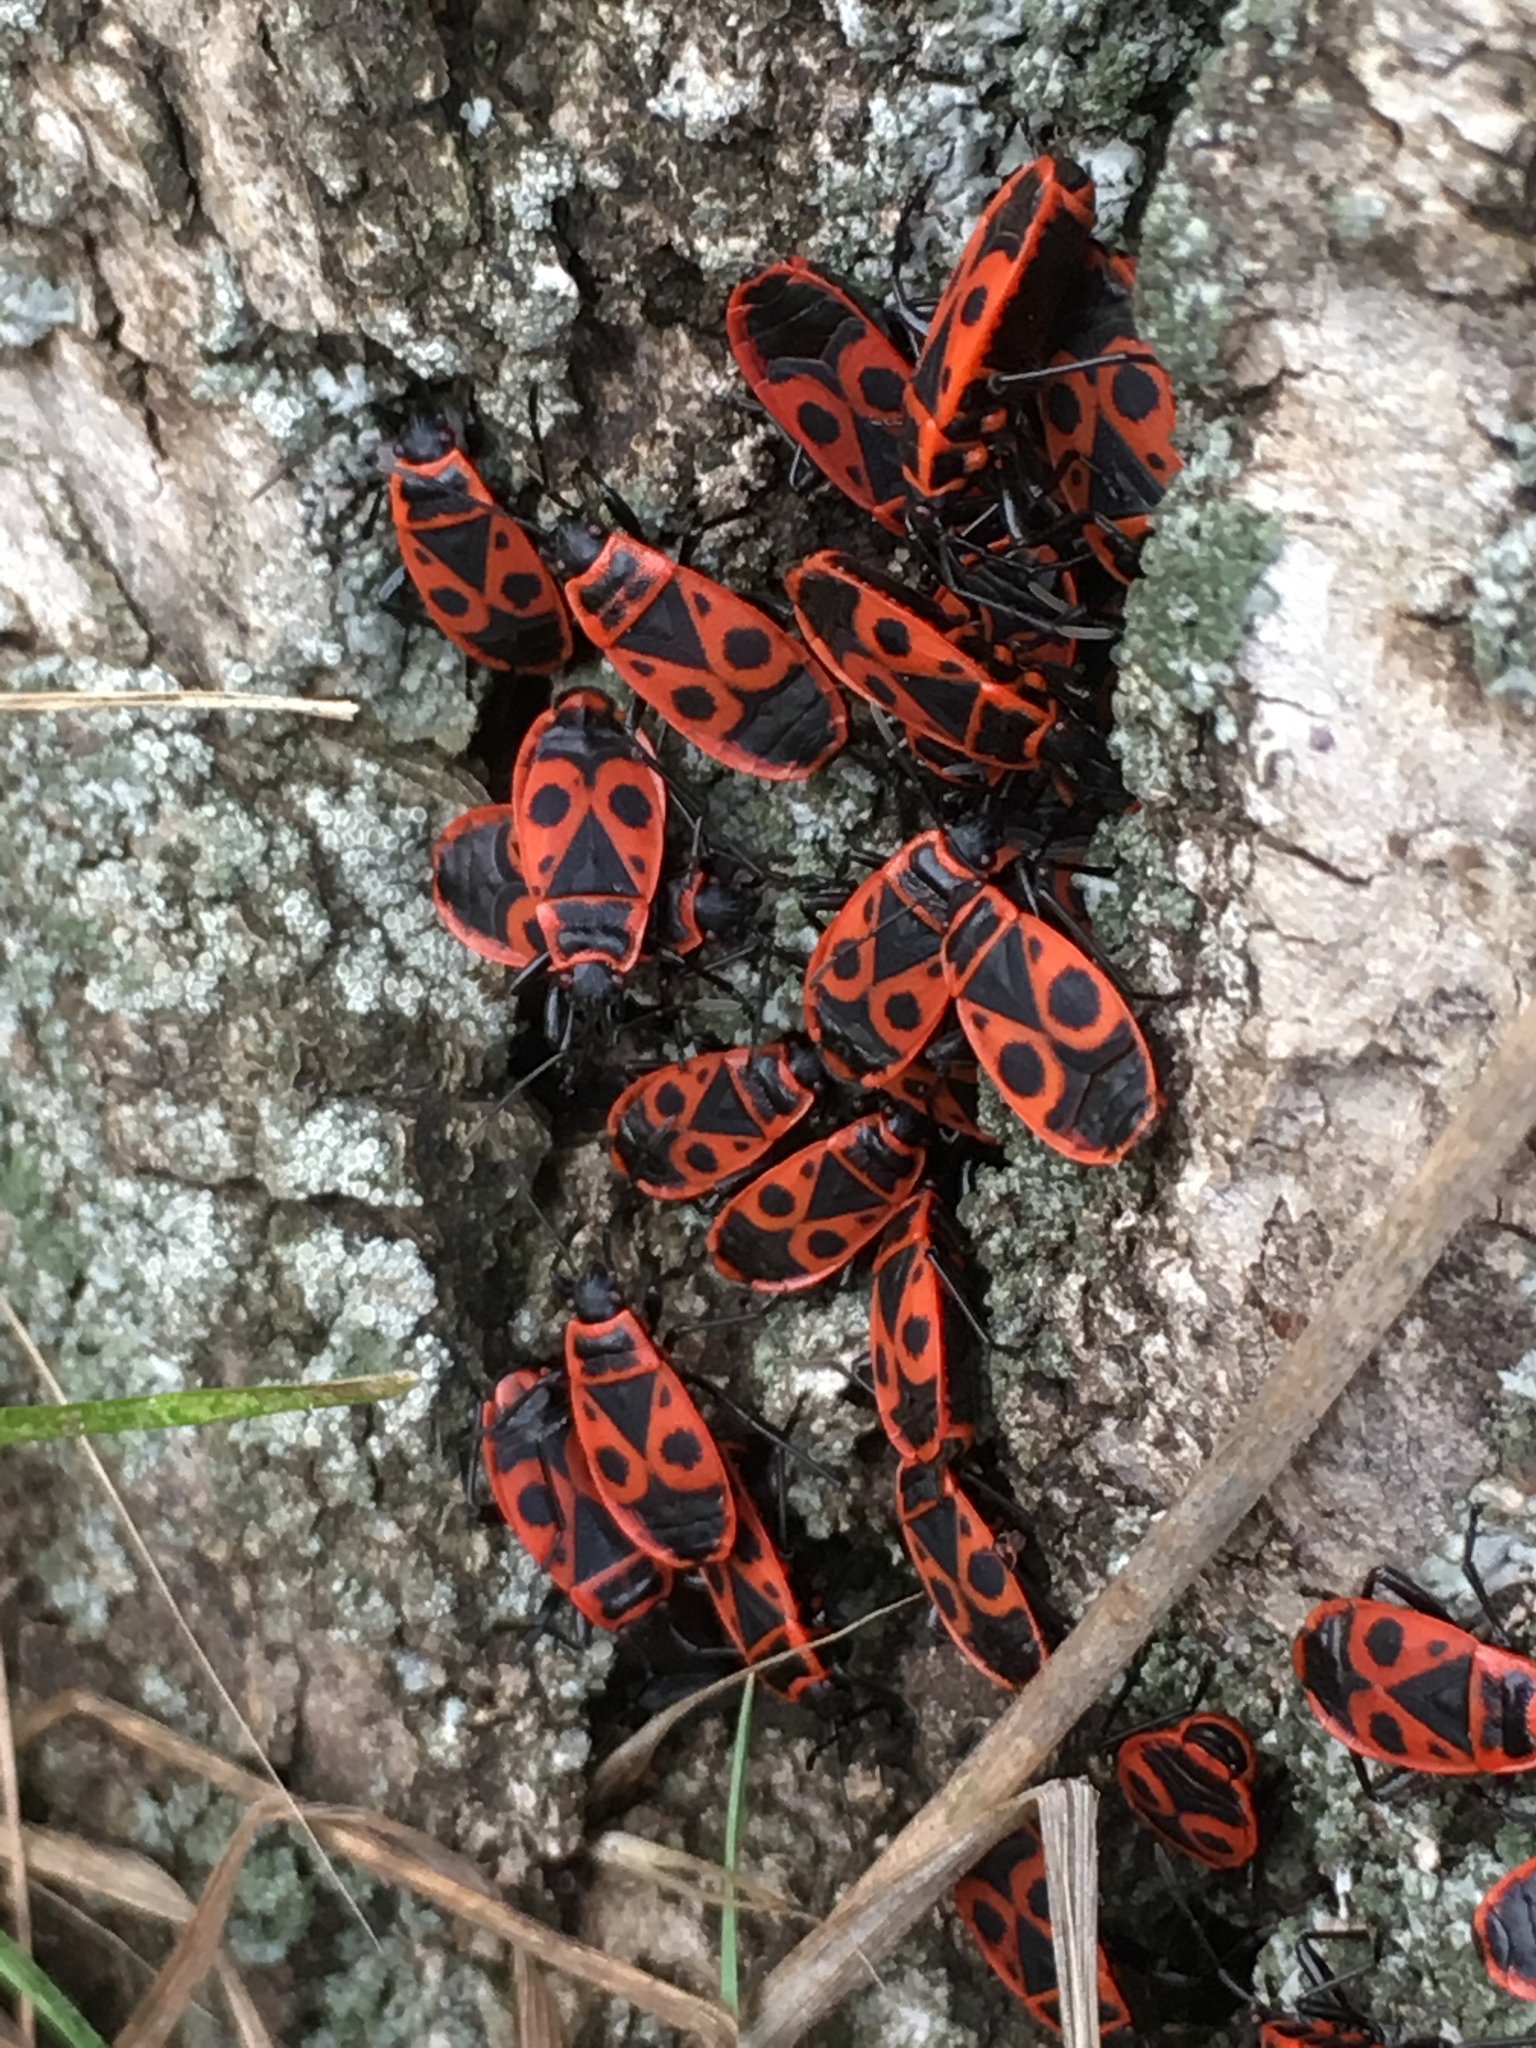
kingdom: Animalia
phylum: Arthropoda
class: Insecta
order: Hemiptera
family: Pyrrhocoridae
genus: Pyrrhocoris
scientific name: Pyrrhocoris apterus
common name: Firebug
